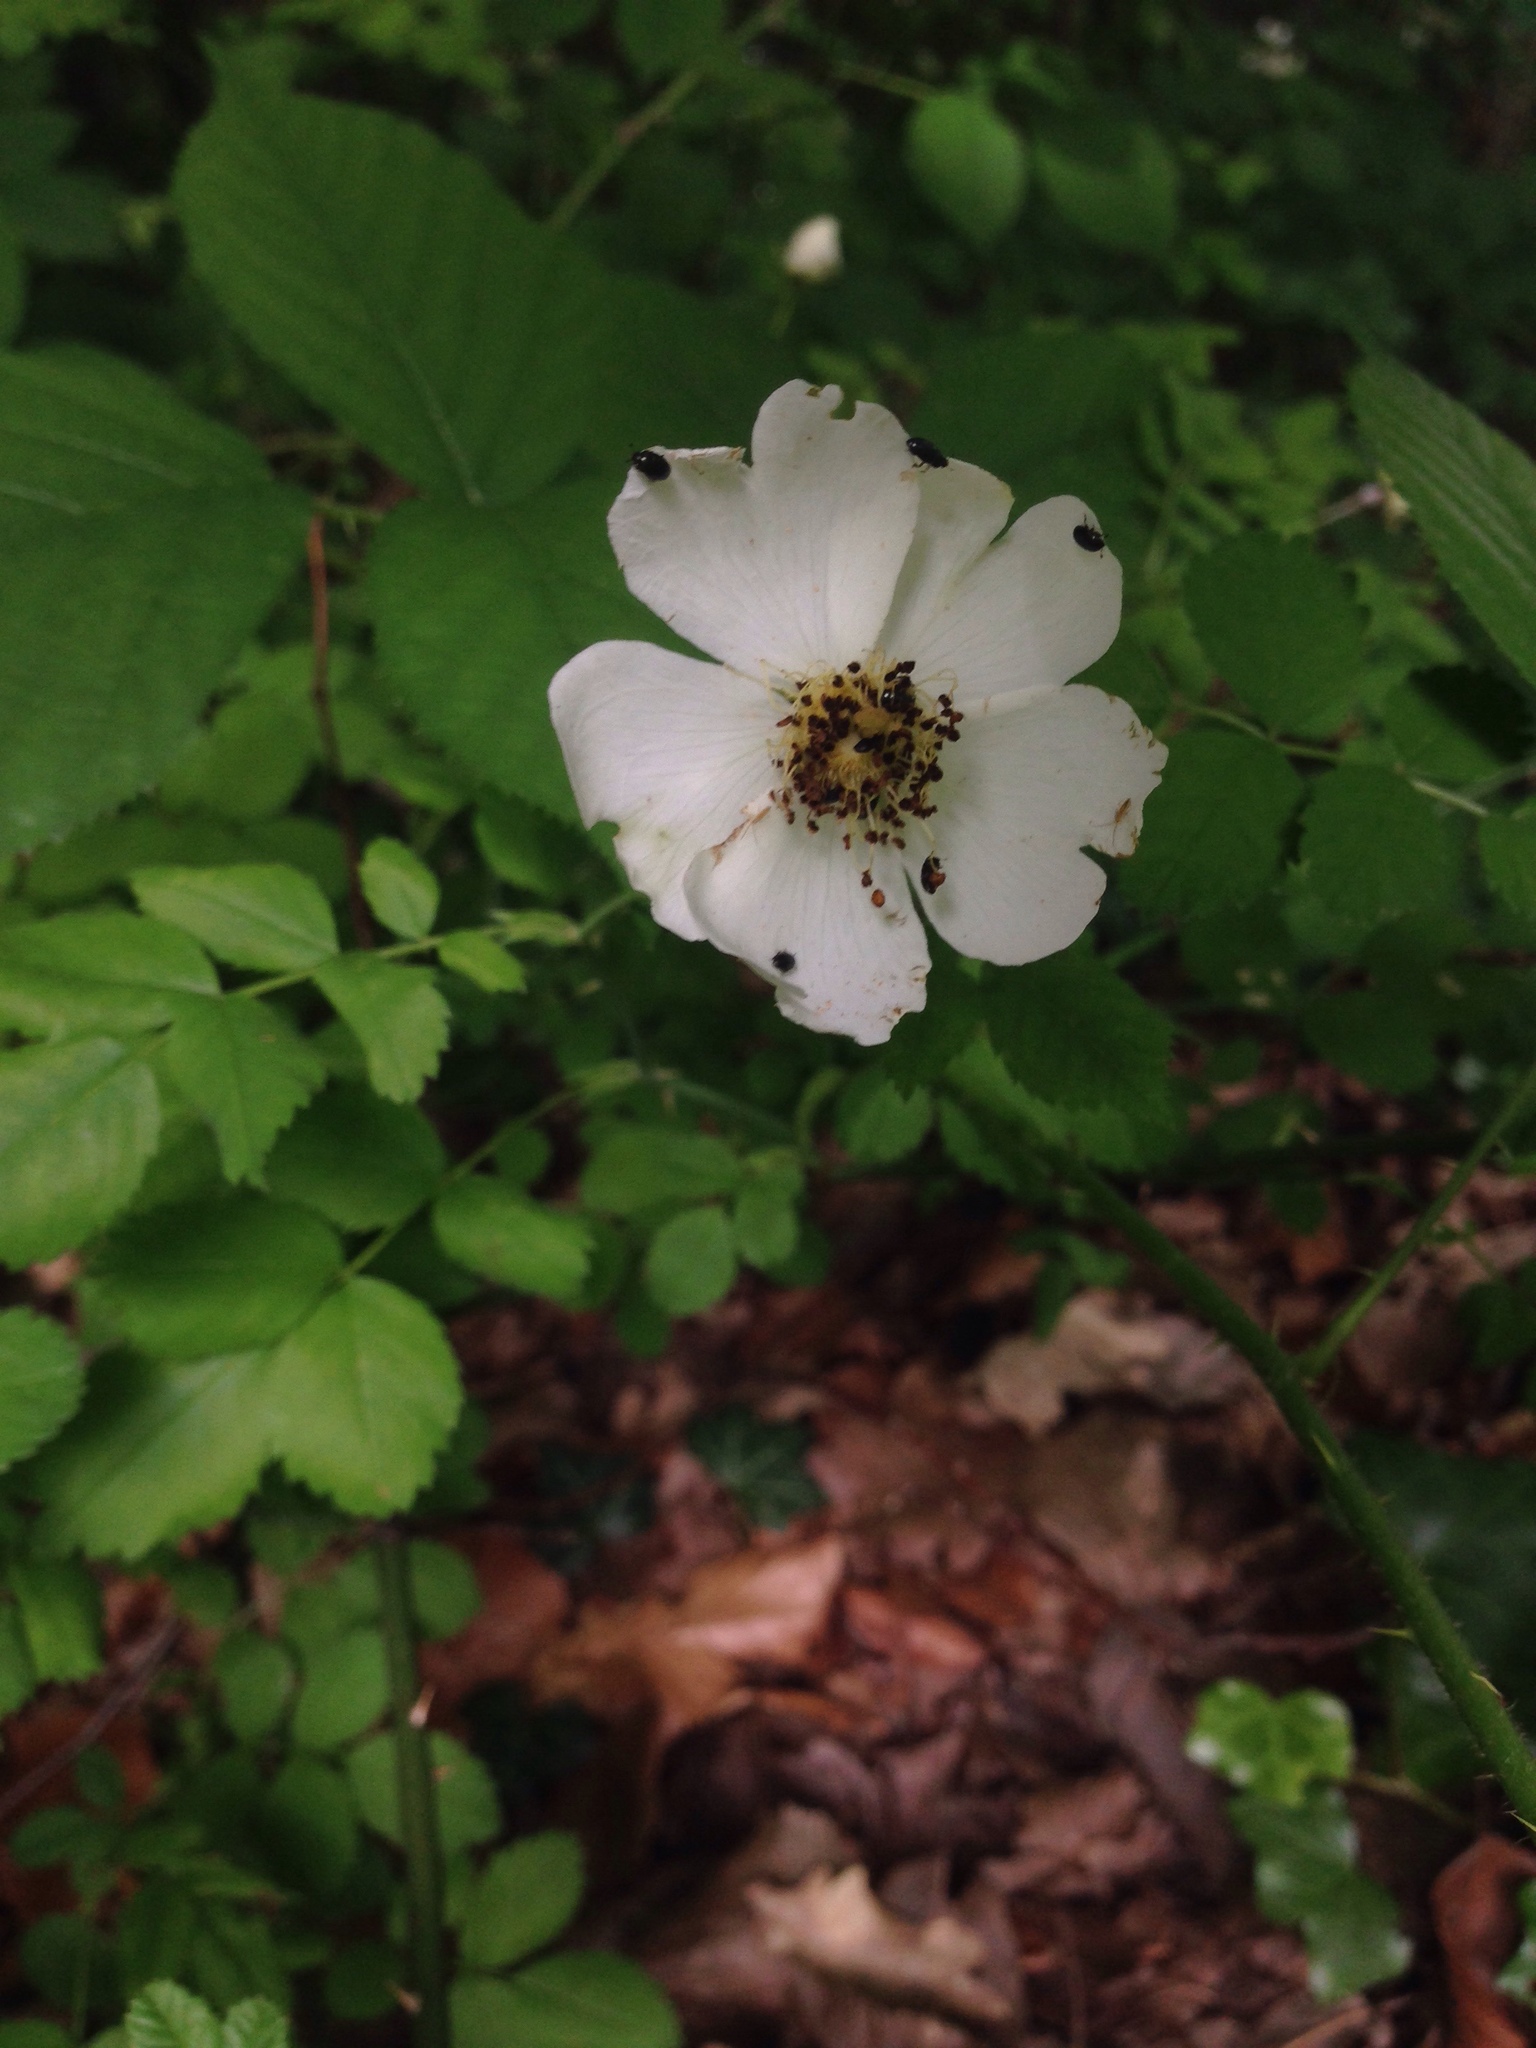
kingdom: Plantae
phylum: Tracheophyta
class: Magnoliopsida
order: Rosales
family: Rosaceae
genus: Rosa
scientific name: Rosa arvensis
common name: Field rose
